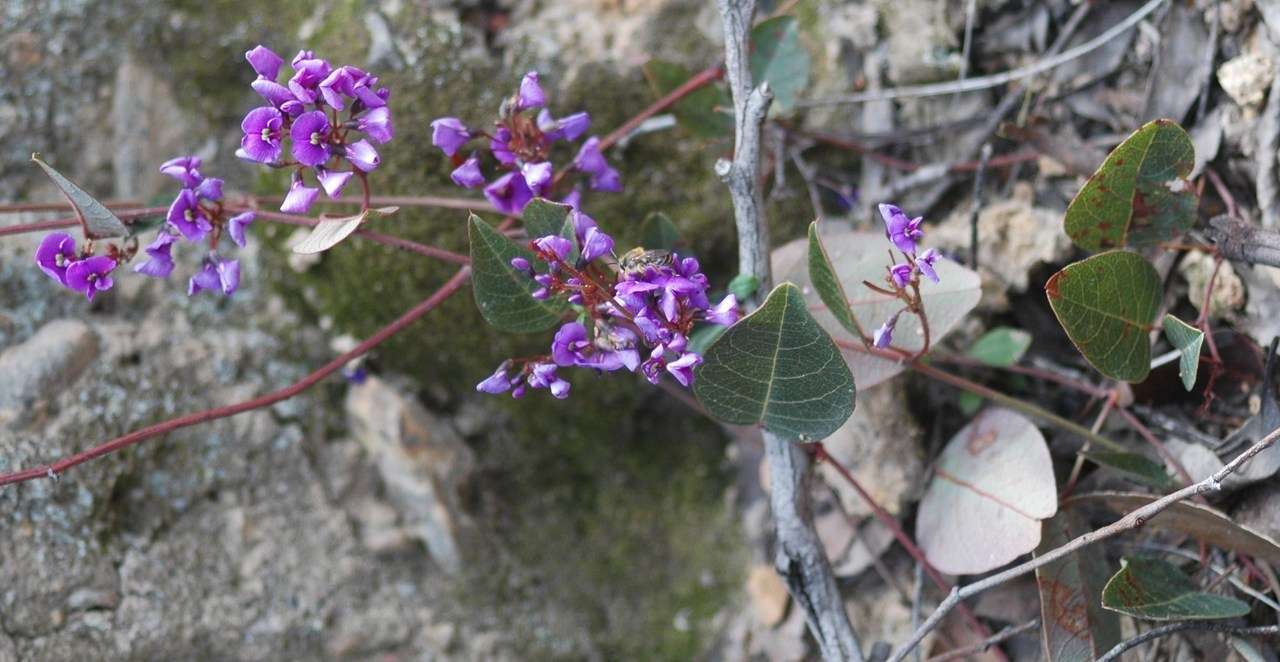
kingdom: Plantae
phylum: Tracheophyta
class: Magnoliopsida
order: Fabales
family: Fabaceae
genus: Hardenbergia
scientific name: Hardenbergia violacea
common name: Coral-pea
